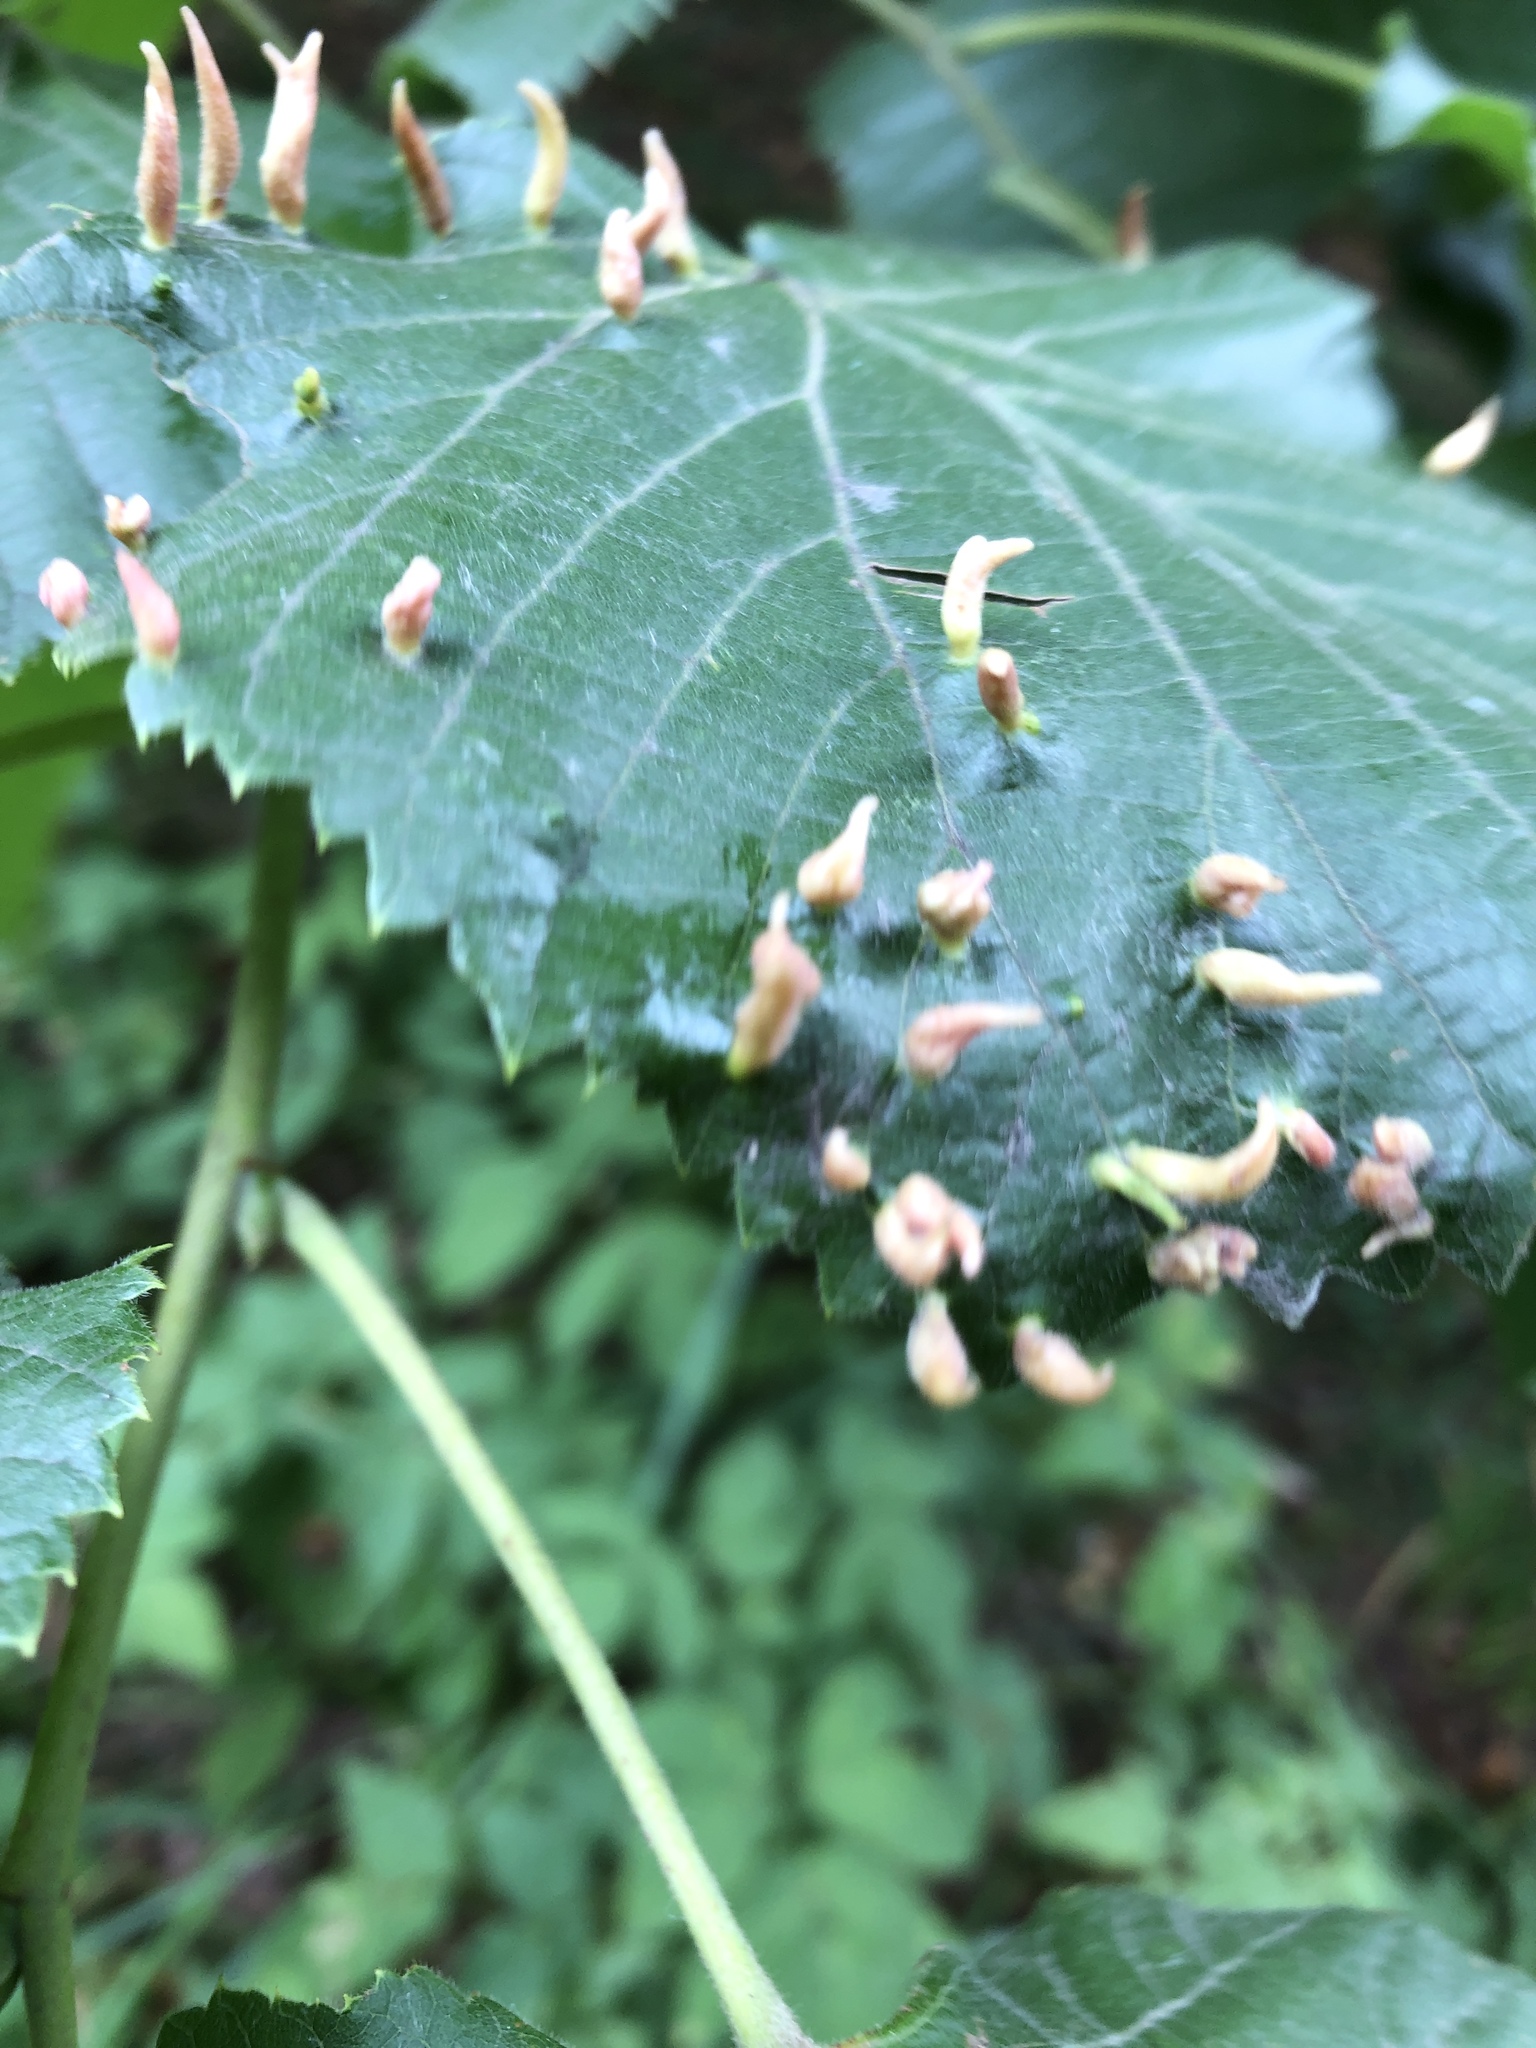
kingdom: Animalia
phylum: Arthropoda
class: Arachnida
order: Trombidiformes
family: Eriophyidae
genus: Eriophyes
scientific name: Eriophyes tiliae
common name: Red nail gall mite
